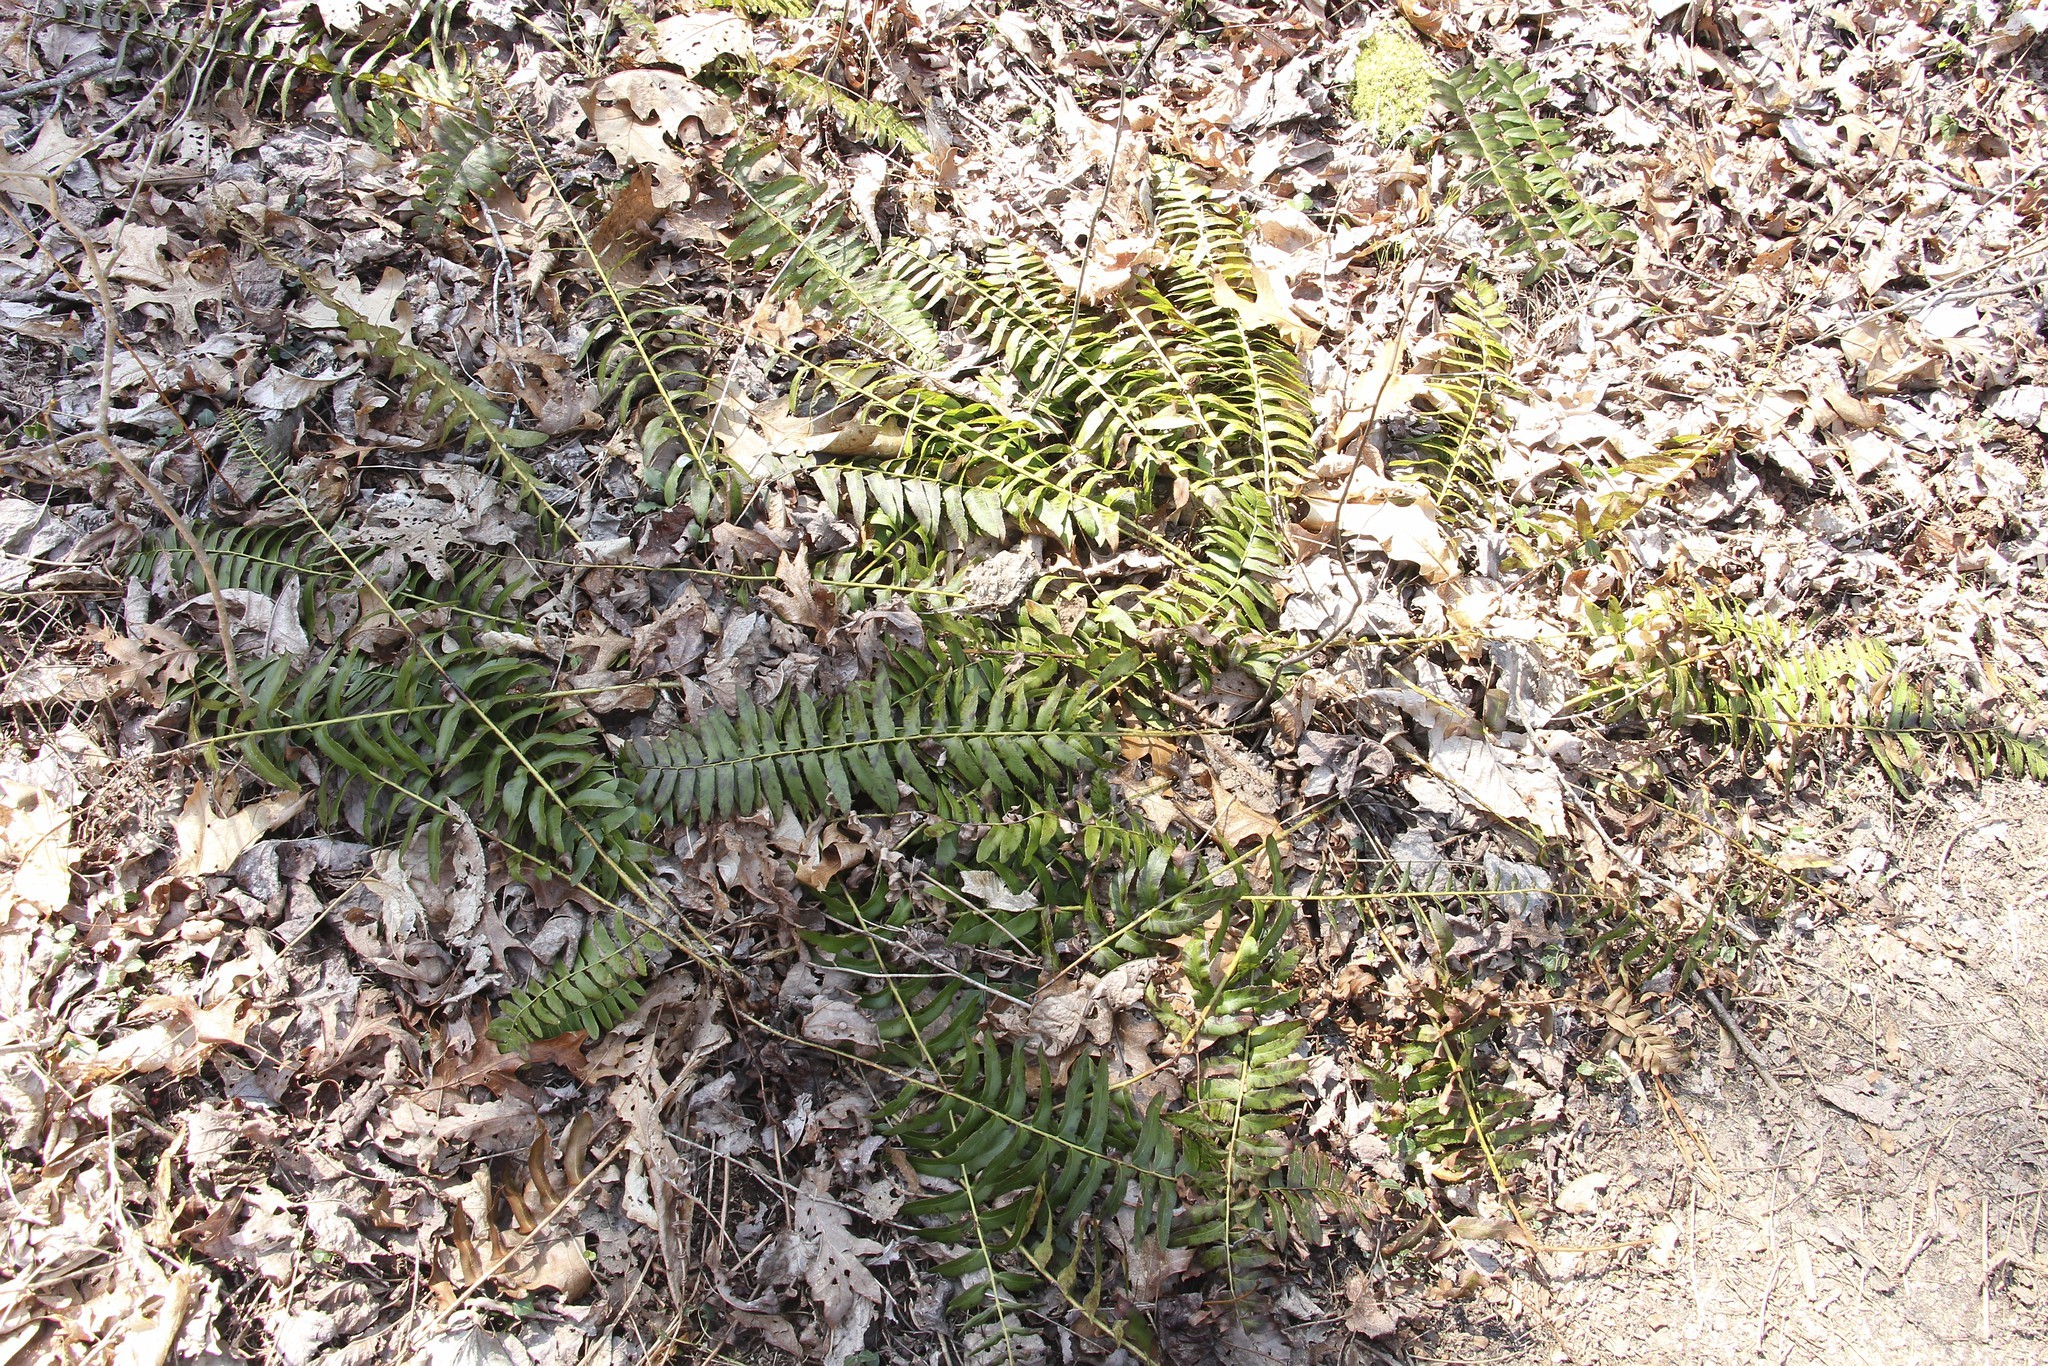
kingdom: Plantae
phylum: Tracheophyta
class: Polypodiopsida
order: Polypodiales
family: Dryopteridaceae
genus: Polystichum
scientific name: Polystichum acrostichoides
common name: Christmas fern
